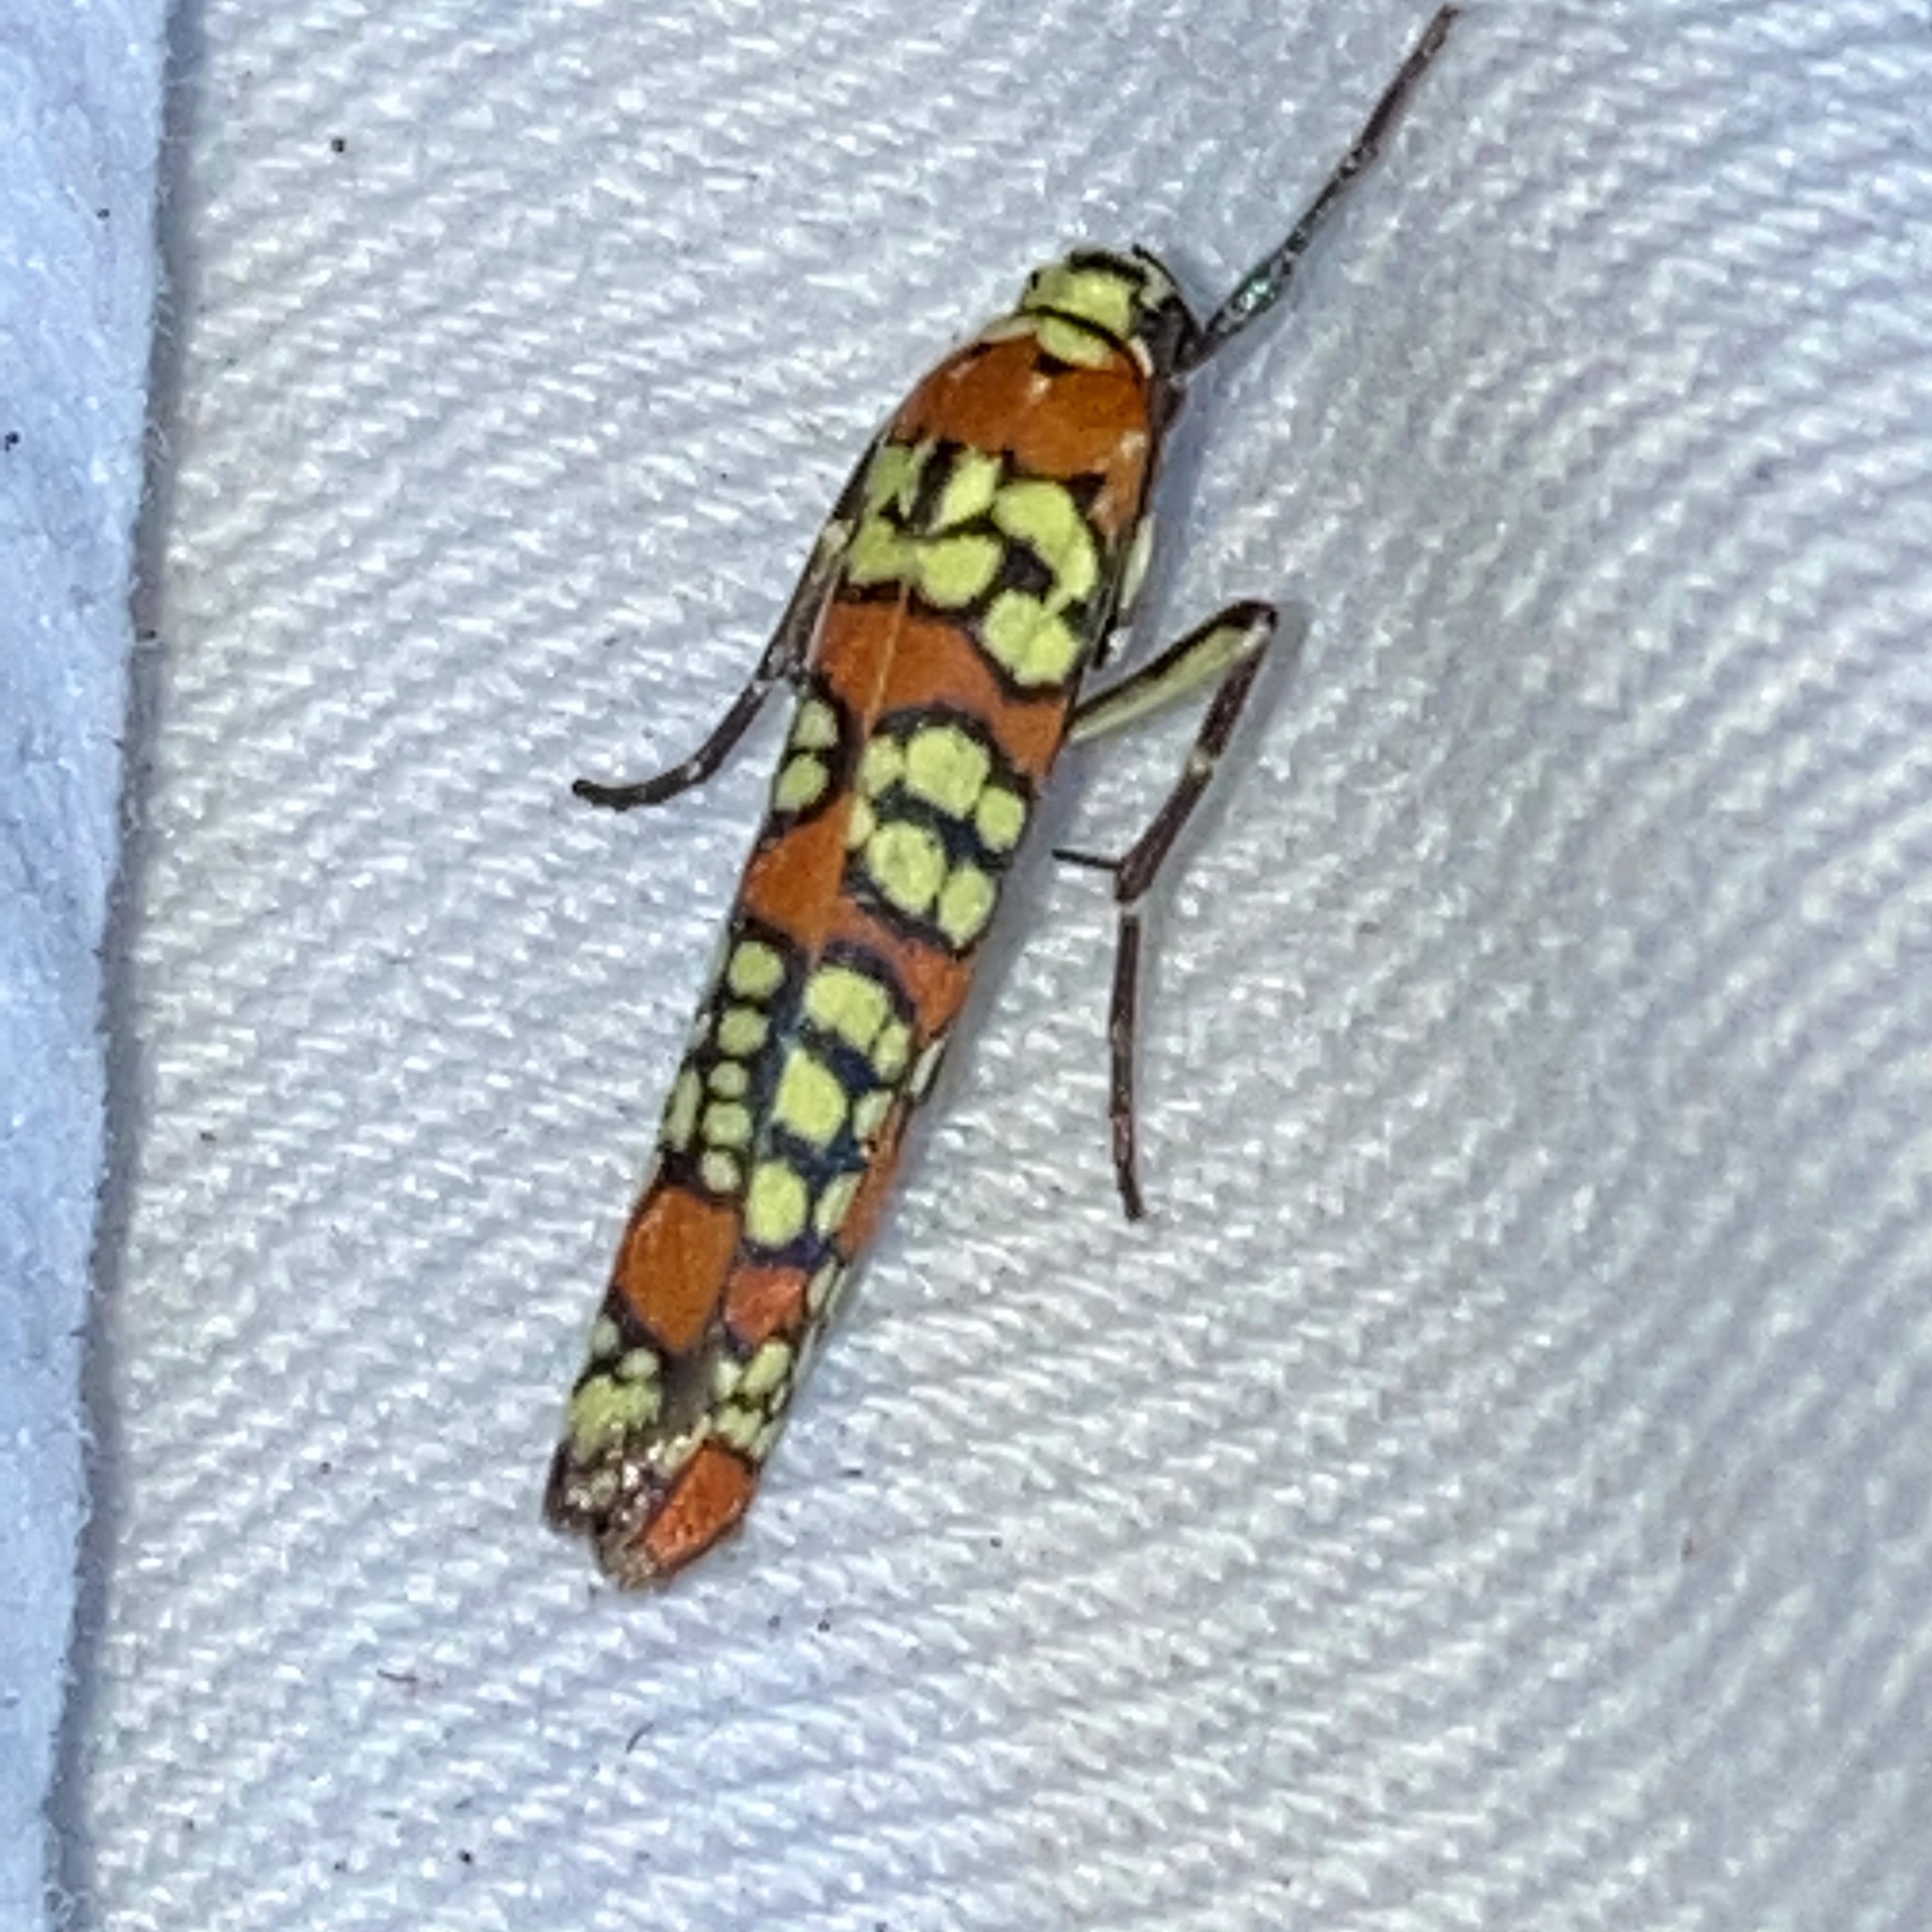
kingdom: Animalia
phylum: Arthropoda
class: Insecta
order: Lepidoptera
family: Attevidae
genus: Atteva
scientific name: Atteva punctella
